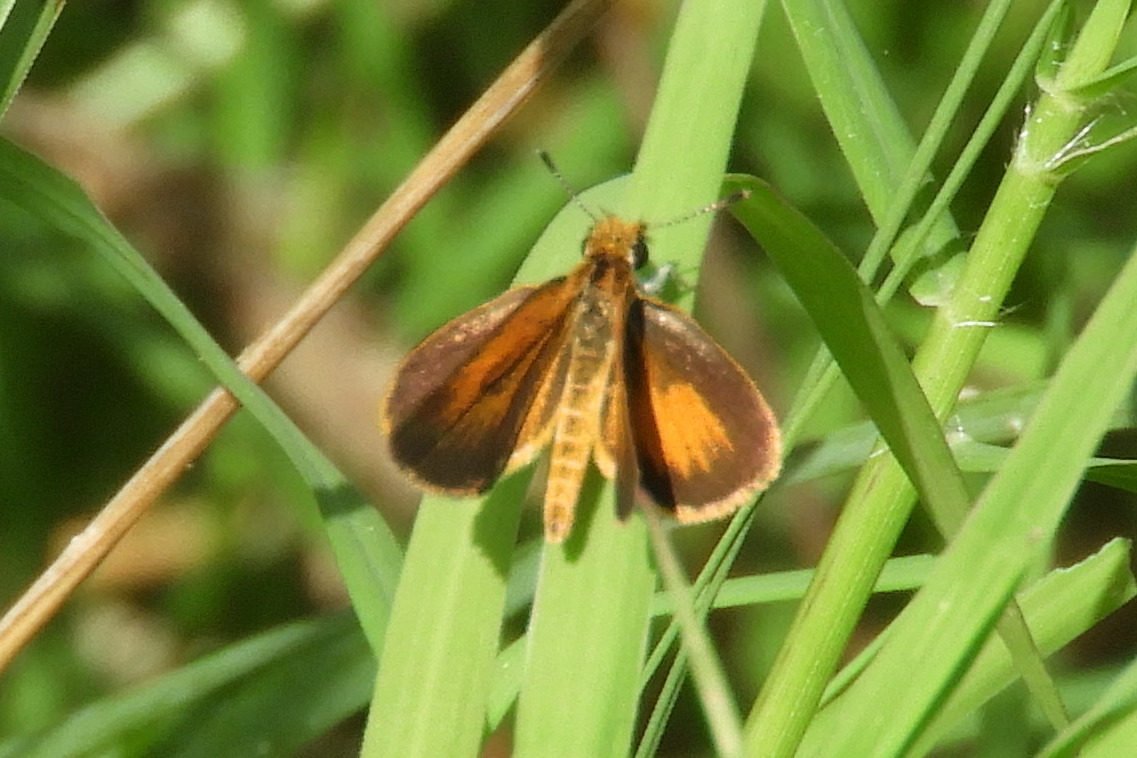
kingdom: Animalia
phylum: Arthropoda
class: Insecta
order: Lepidoptera
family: Hesperiidae
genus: Ancyloxypha
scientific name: Ancyloxypha numitor
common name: Least skipper
